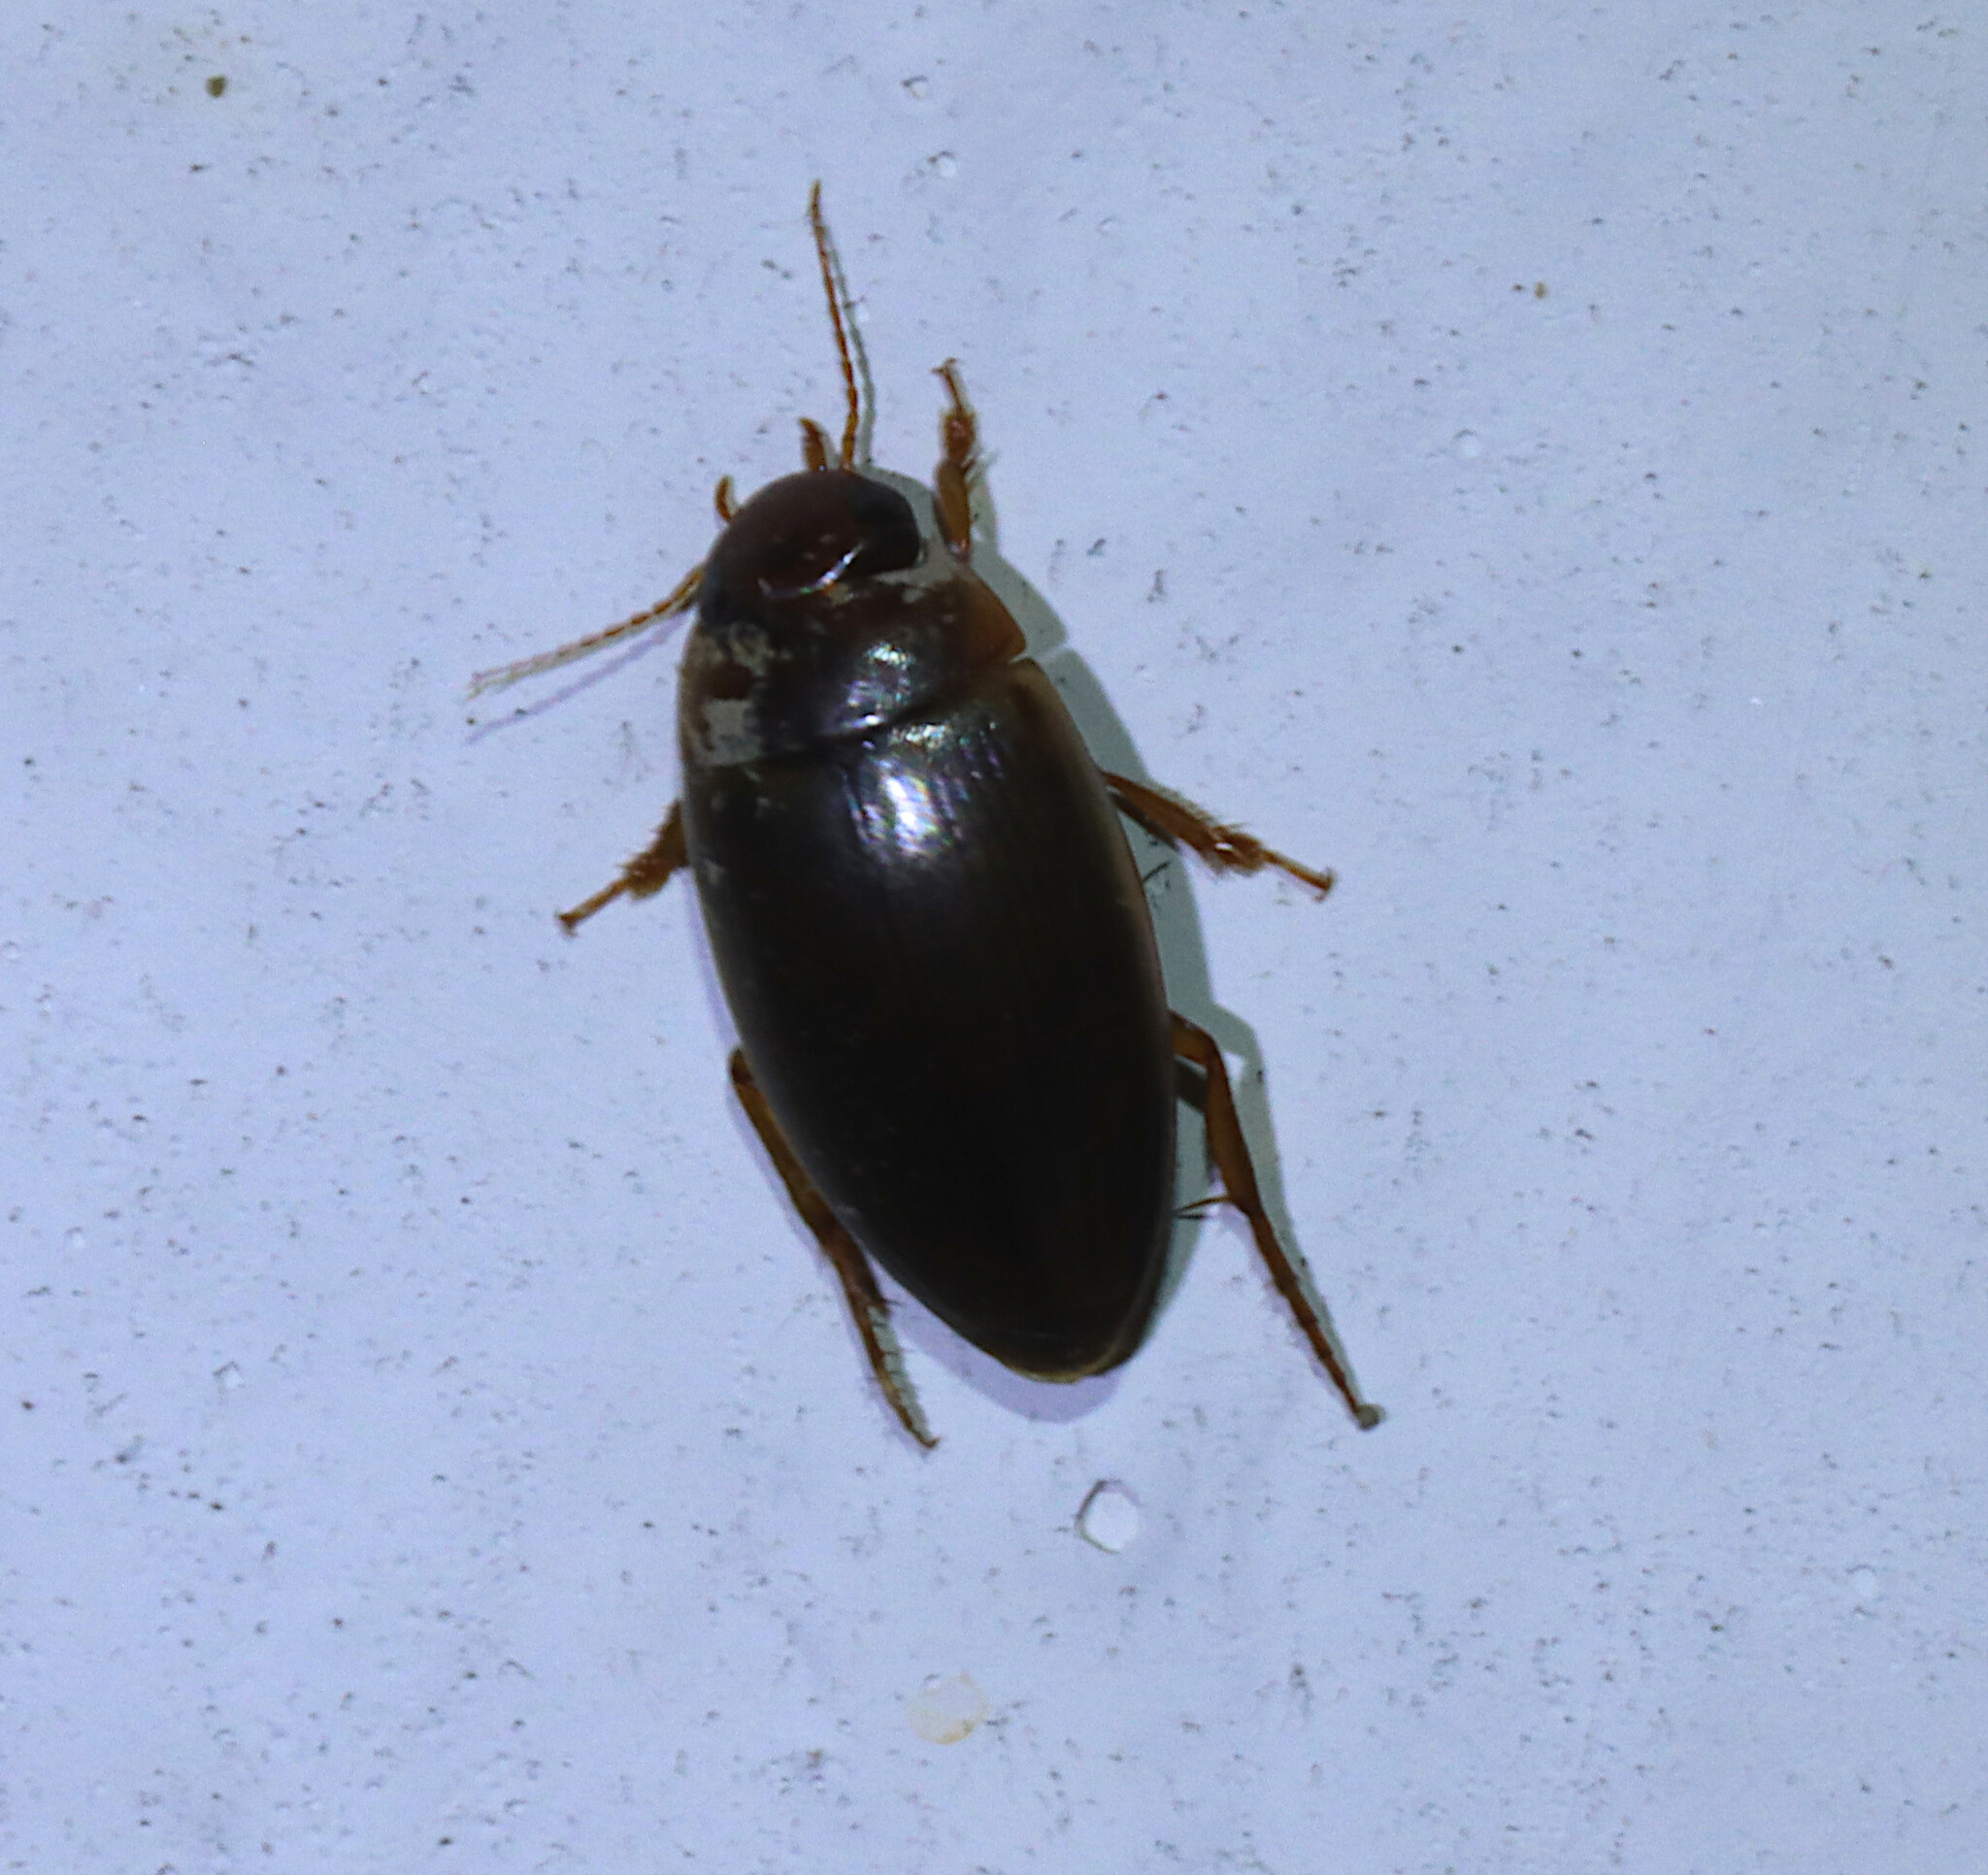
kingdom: Animalia
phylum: Arthropoda
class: Insecta
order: Coleoptera
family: Dytiscidae
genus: Copelatus
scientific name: Copelatus chevrolati
